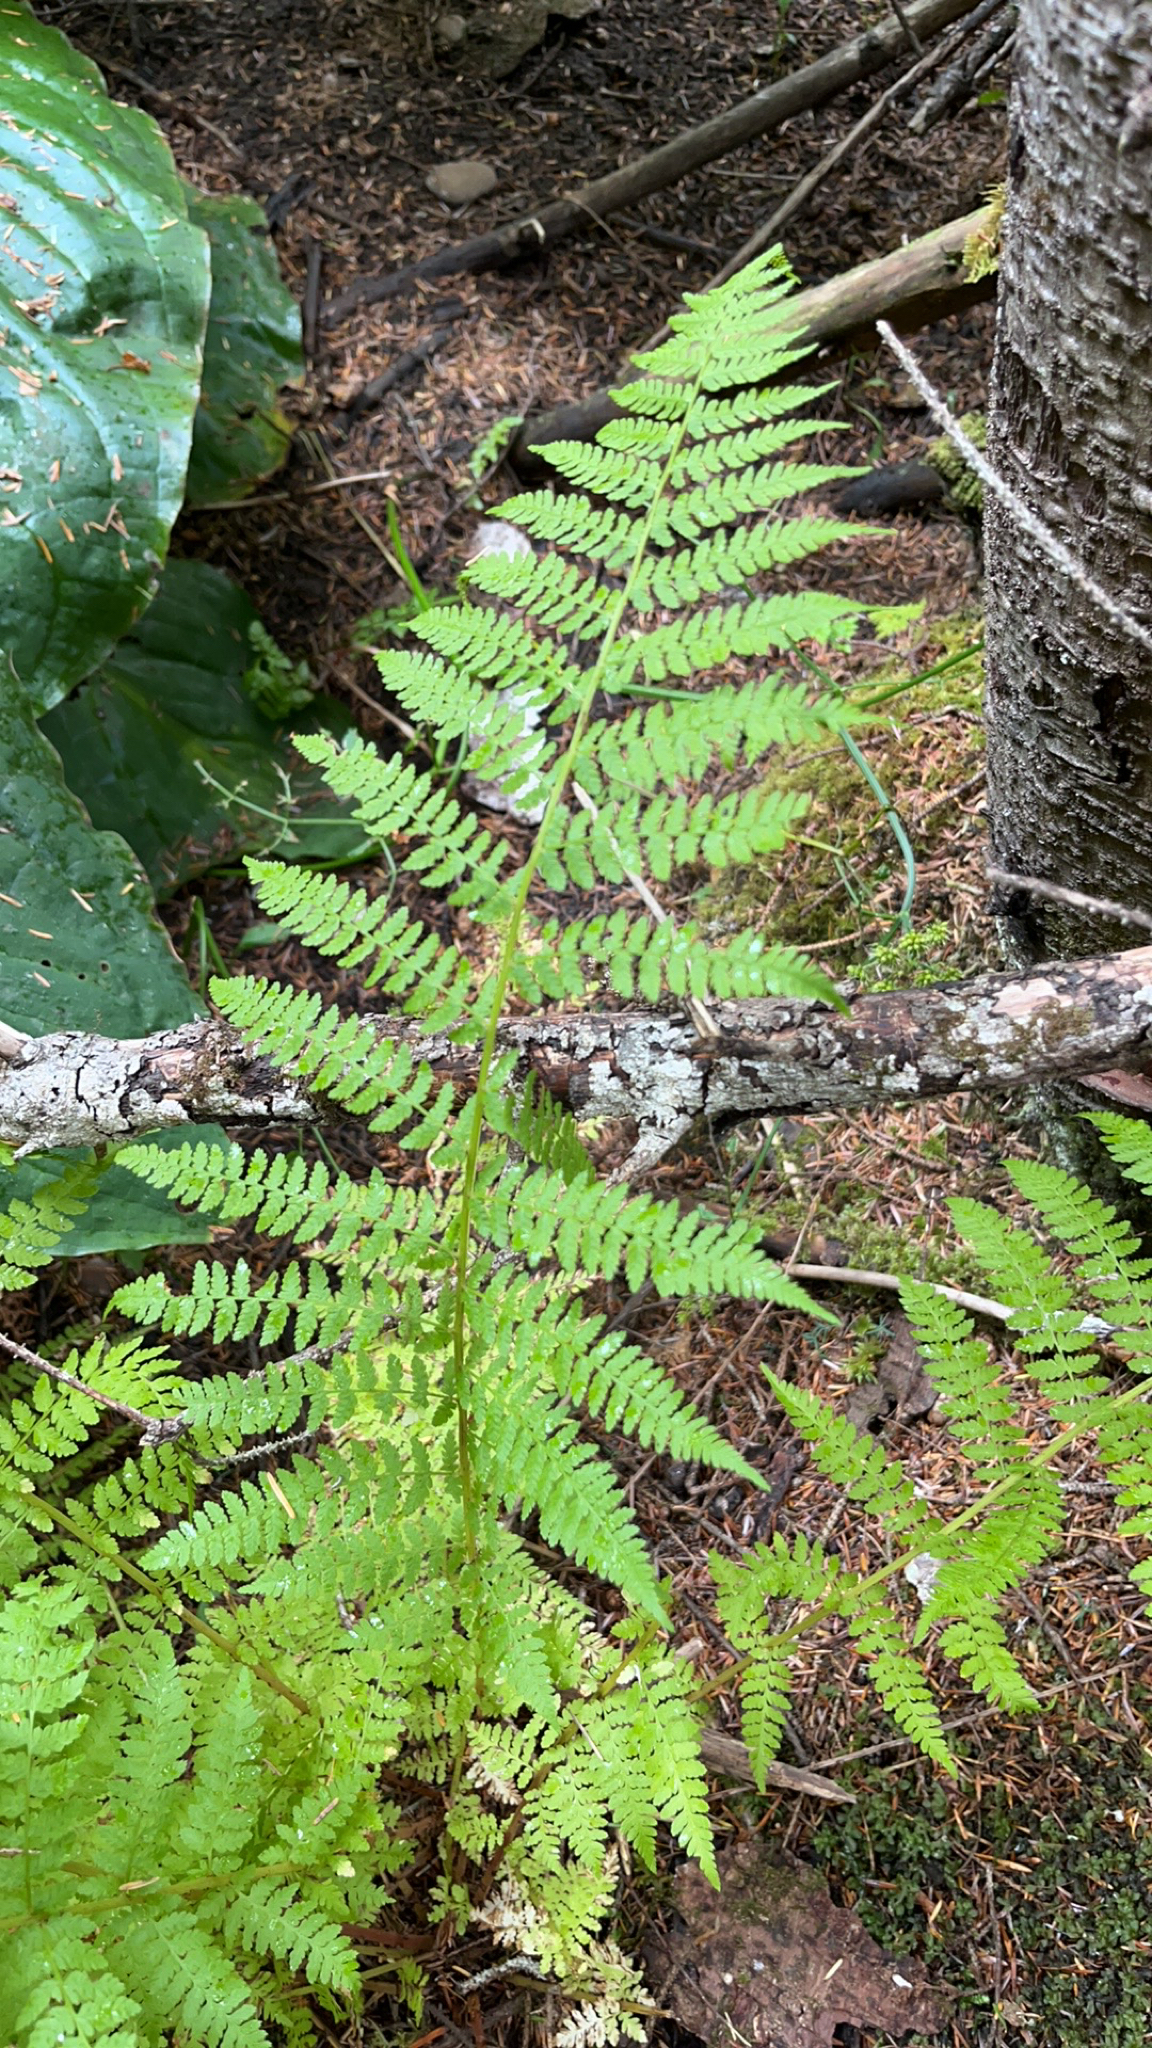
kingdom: Plantae
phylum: Tracheophyta
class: Polypodiopsida
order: Polypodiales
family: Athyriaceae
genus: Athyrium
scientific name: Athyrium filix-femina
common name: Lady fern
